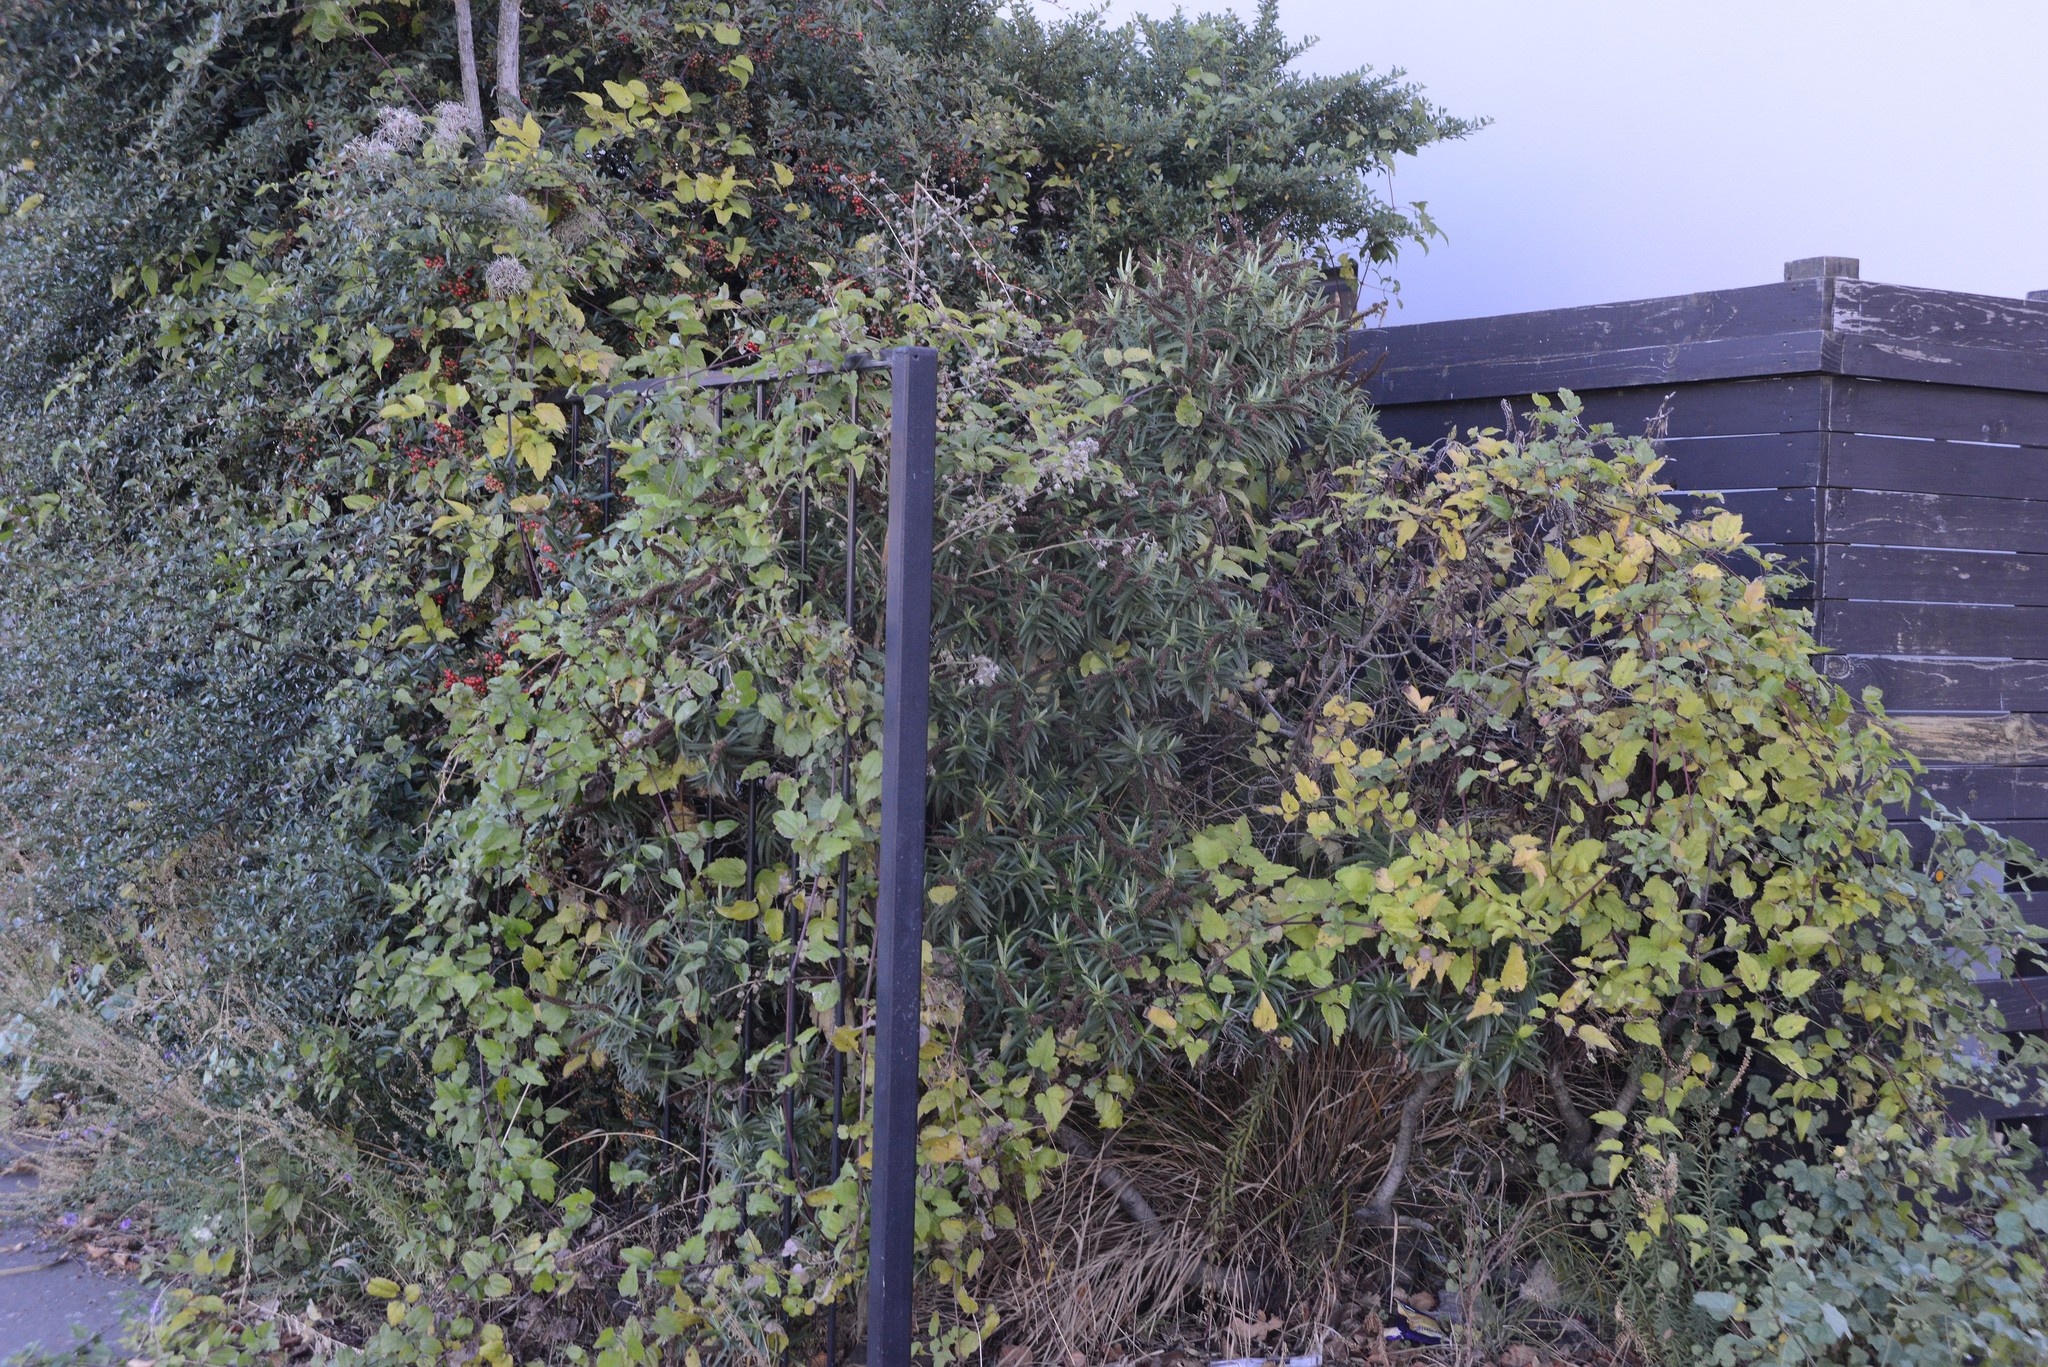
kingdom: Plantae
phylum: Tracheophyta
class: Magnoliopsida
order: Ranunculales
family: Ranunculaceae
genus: Clematis
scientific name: Clematis vitalba
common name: Evergreen clematis
